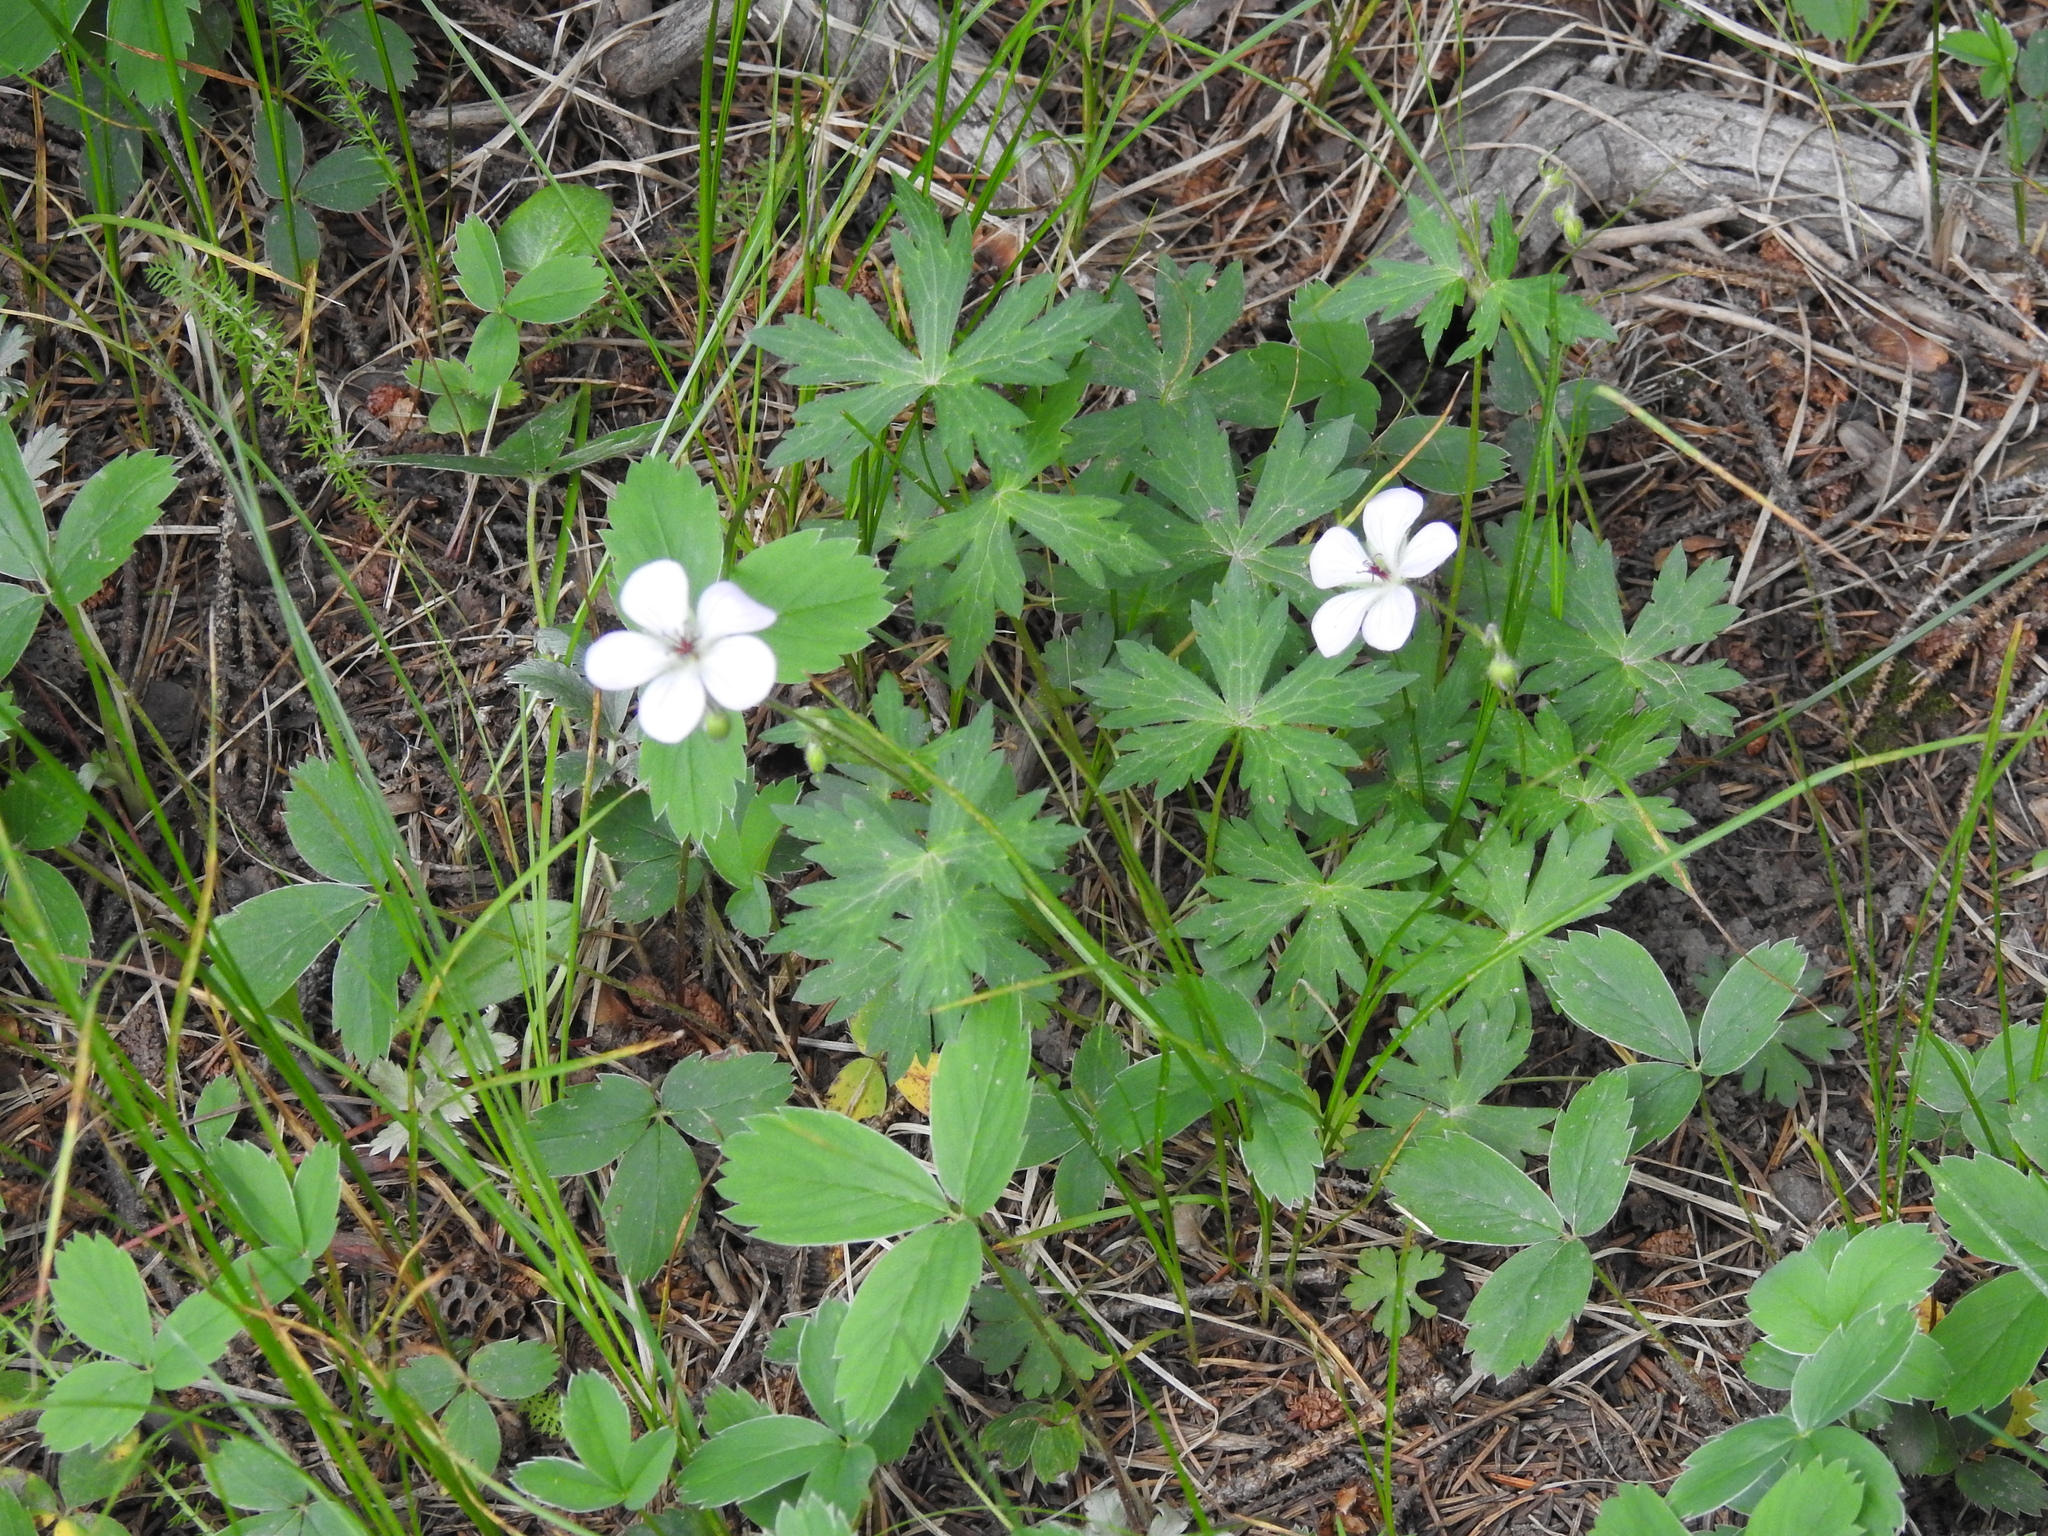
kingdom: Plantae
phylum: Tracheophyta
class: Magnoliopsida
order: Geraniales
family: Geraniaceae
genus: Geranium
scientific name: Geranium richardsonii
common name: Richardson's crane's-bill
